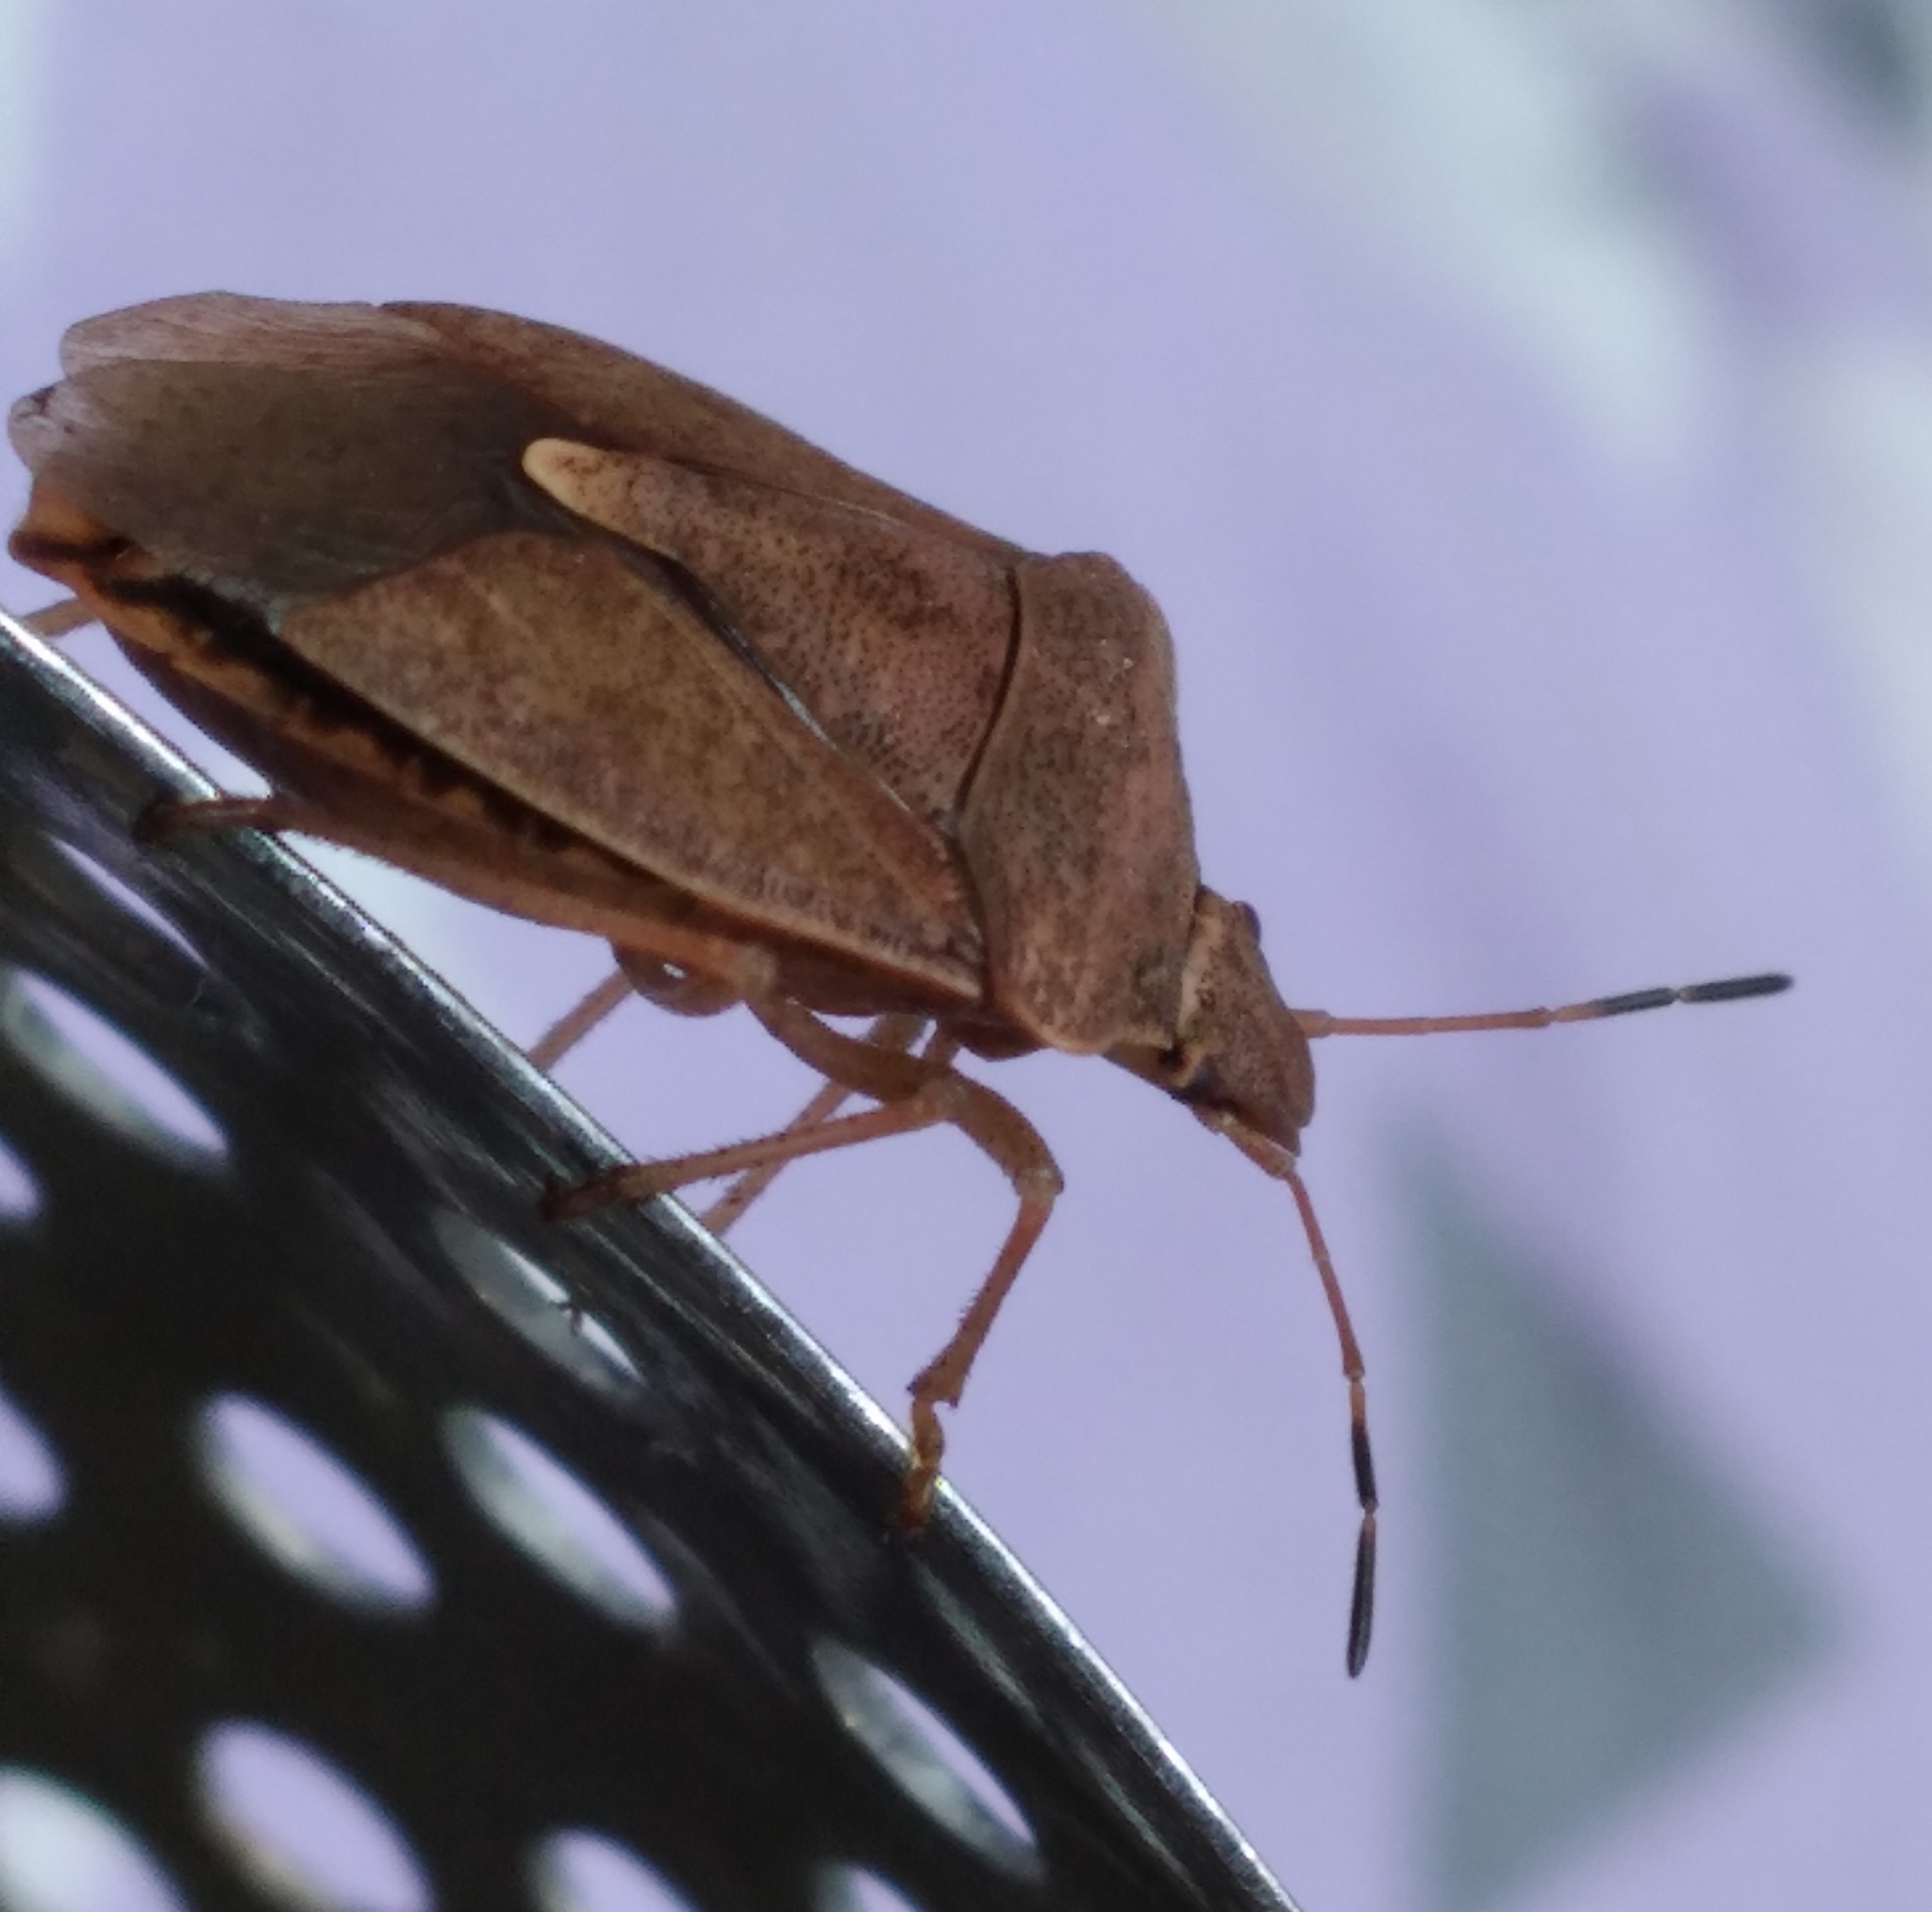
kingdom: Animalia
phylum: Arthropoda
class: Insecta
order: Hemiptera
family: Pentatomidae
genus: Euschistus
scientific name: Euschistus servus
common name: Brown stink bug
